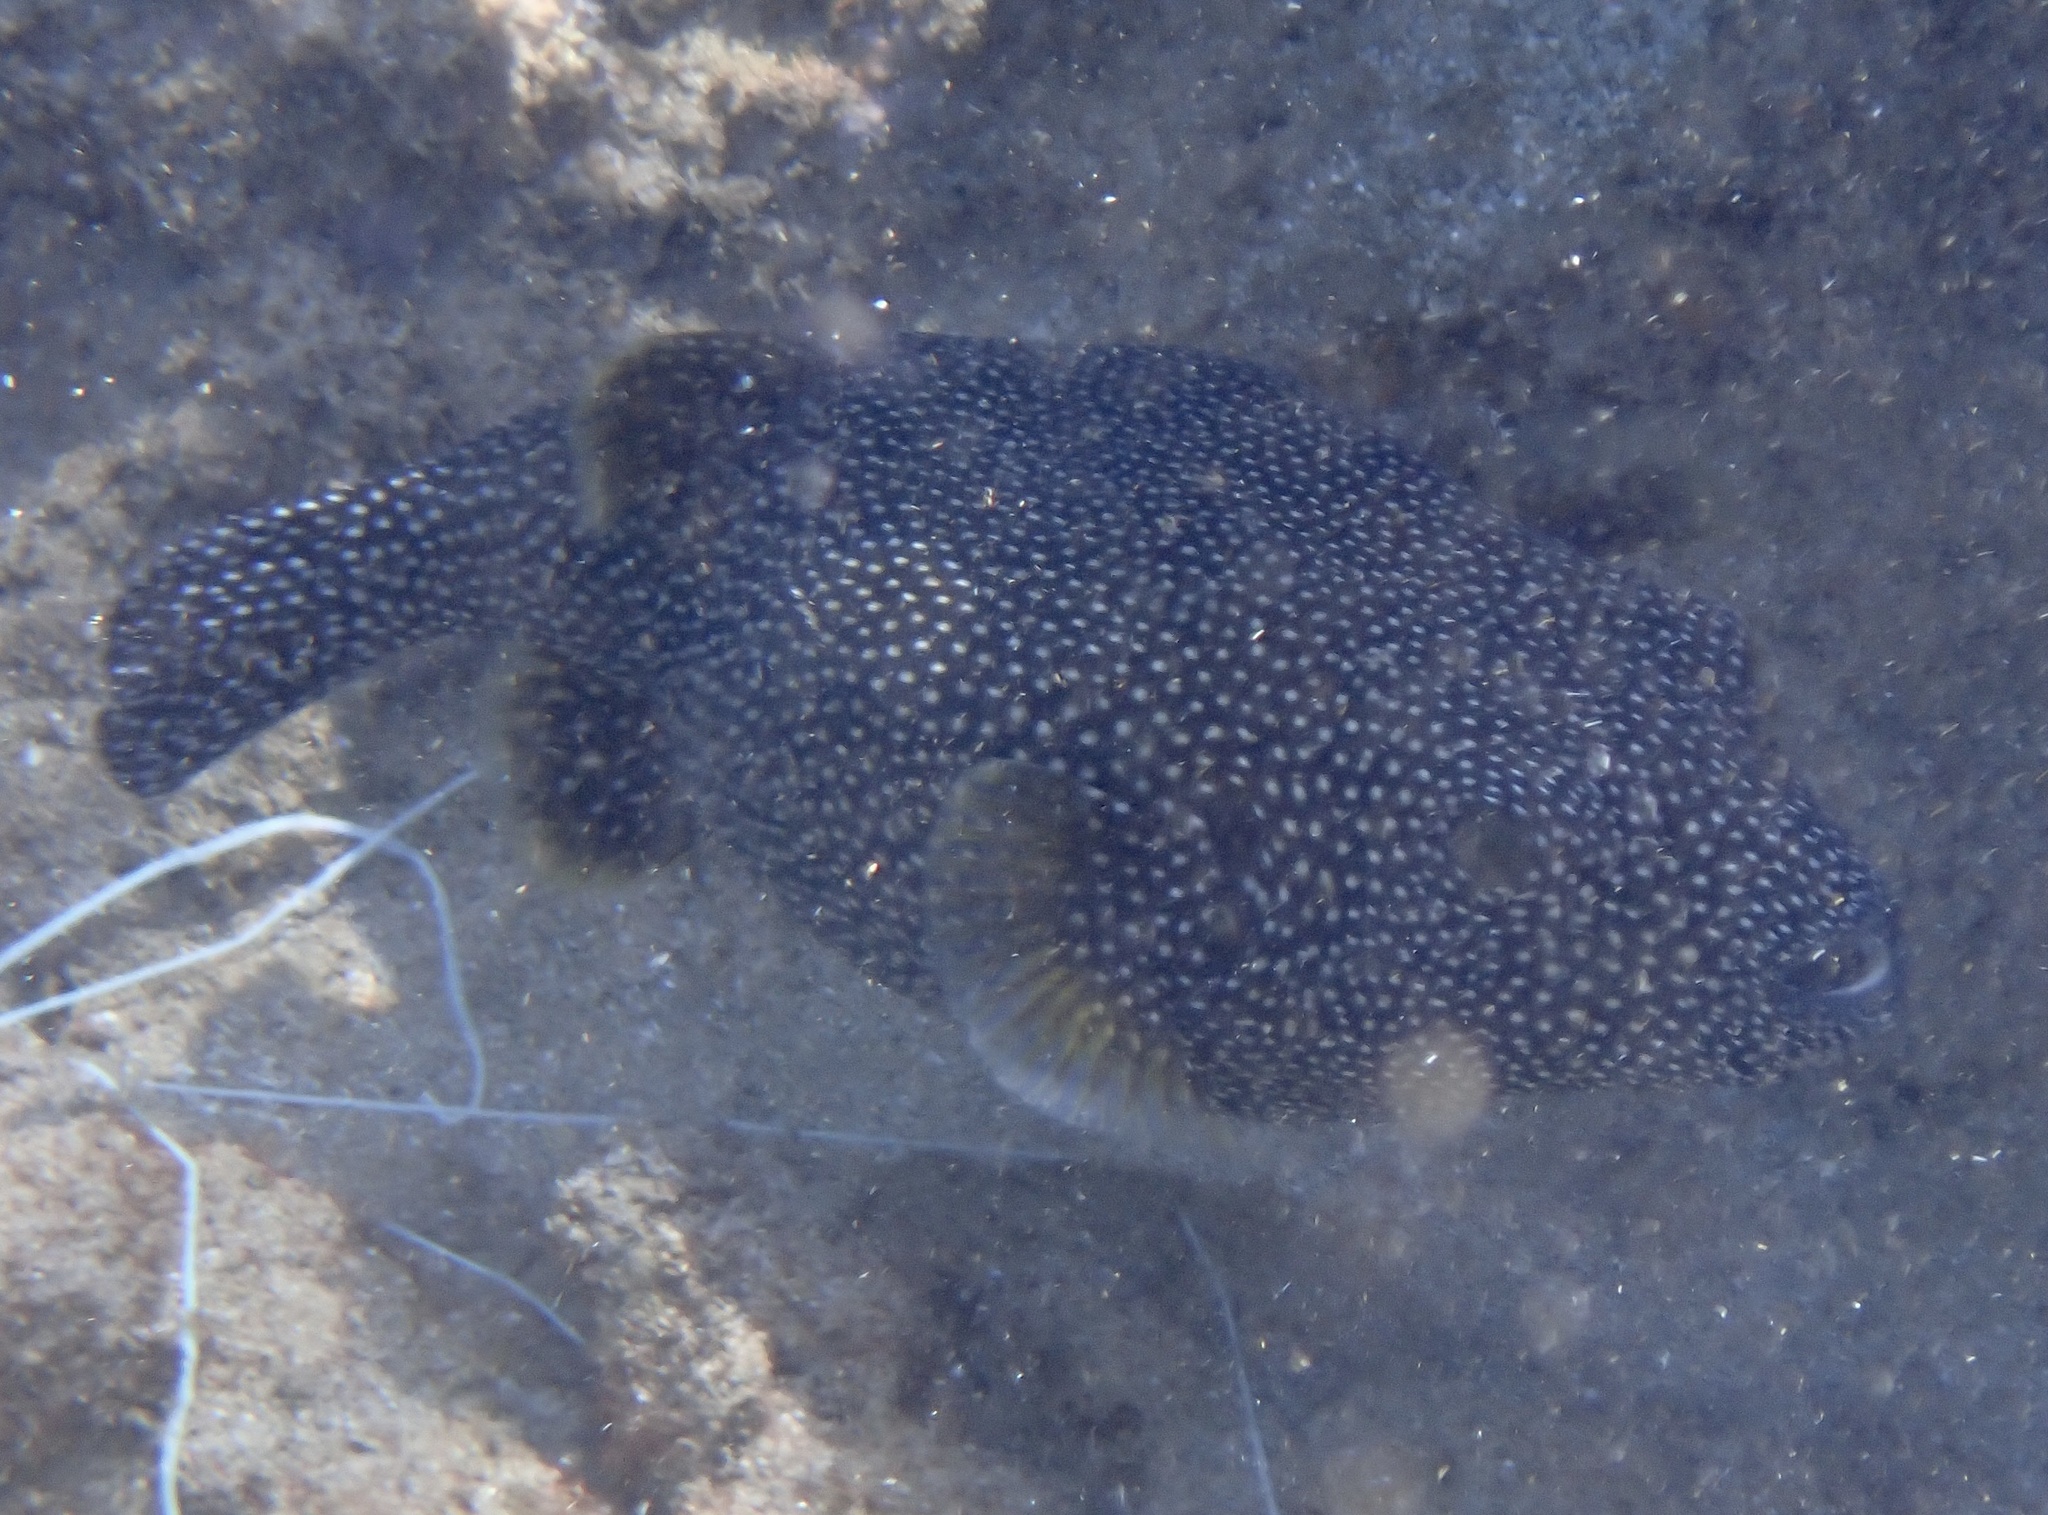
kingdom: Animalia
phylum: Chordata
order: Tetraodontiformes
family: Tetraodontidae
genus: Arothron
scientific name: Arothron meleagris
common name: Guinea-fowl pufferfish
